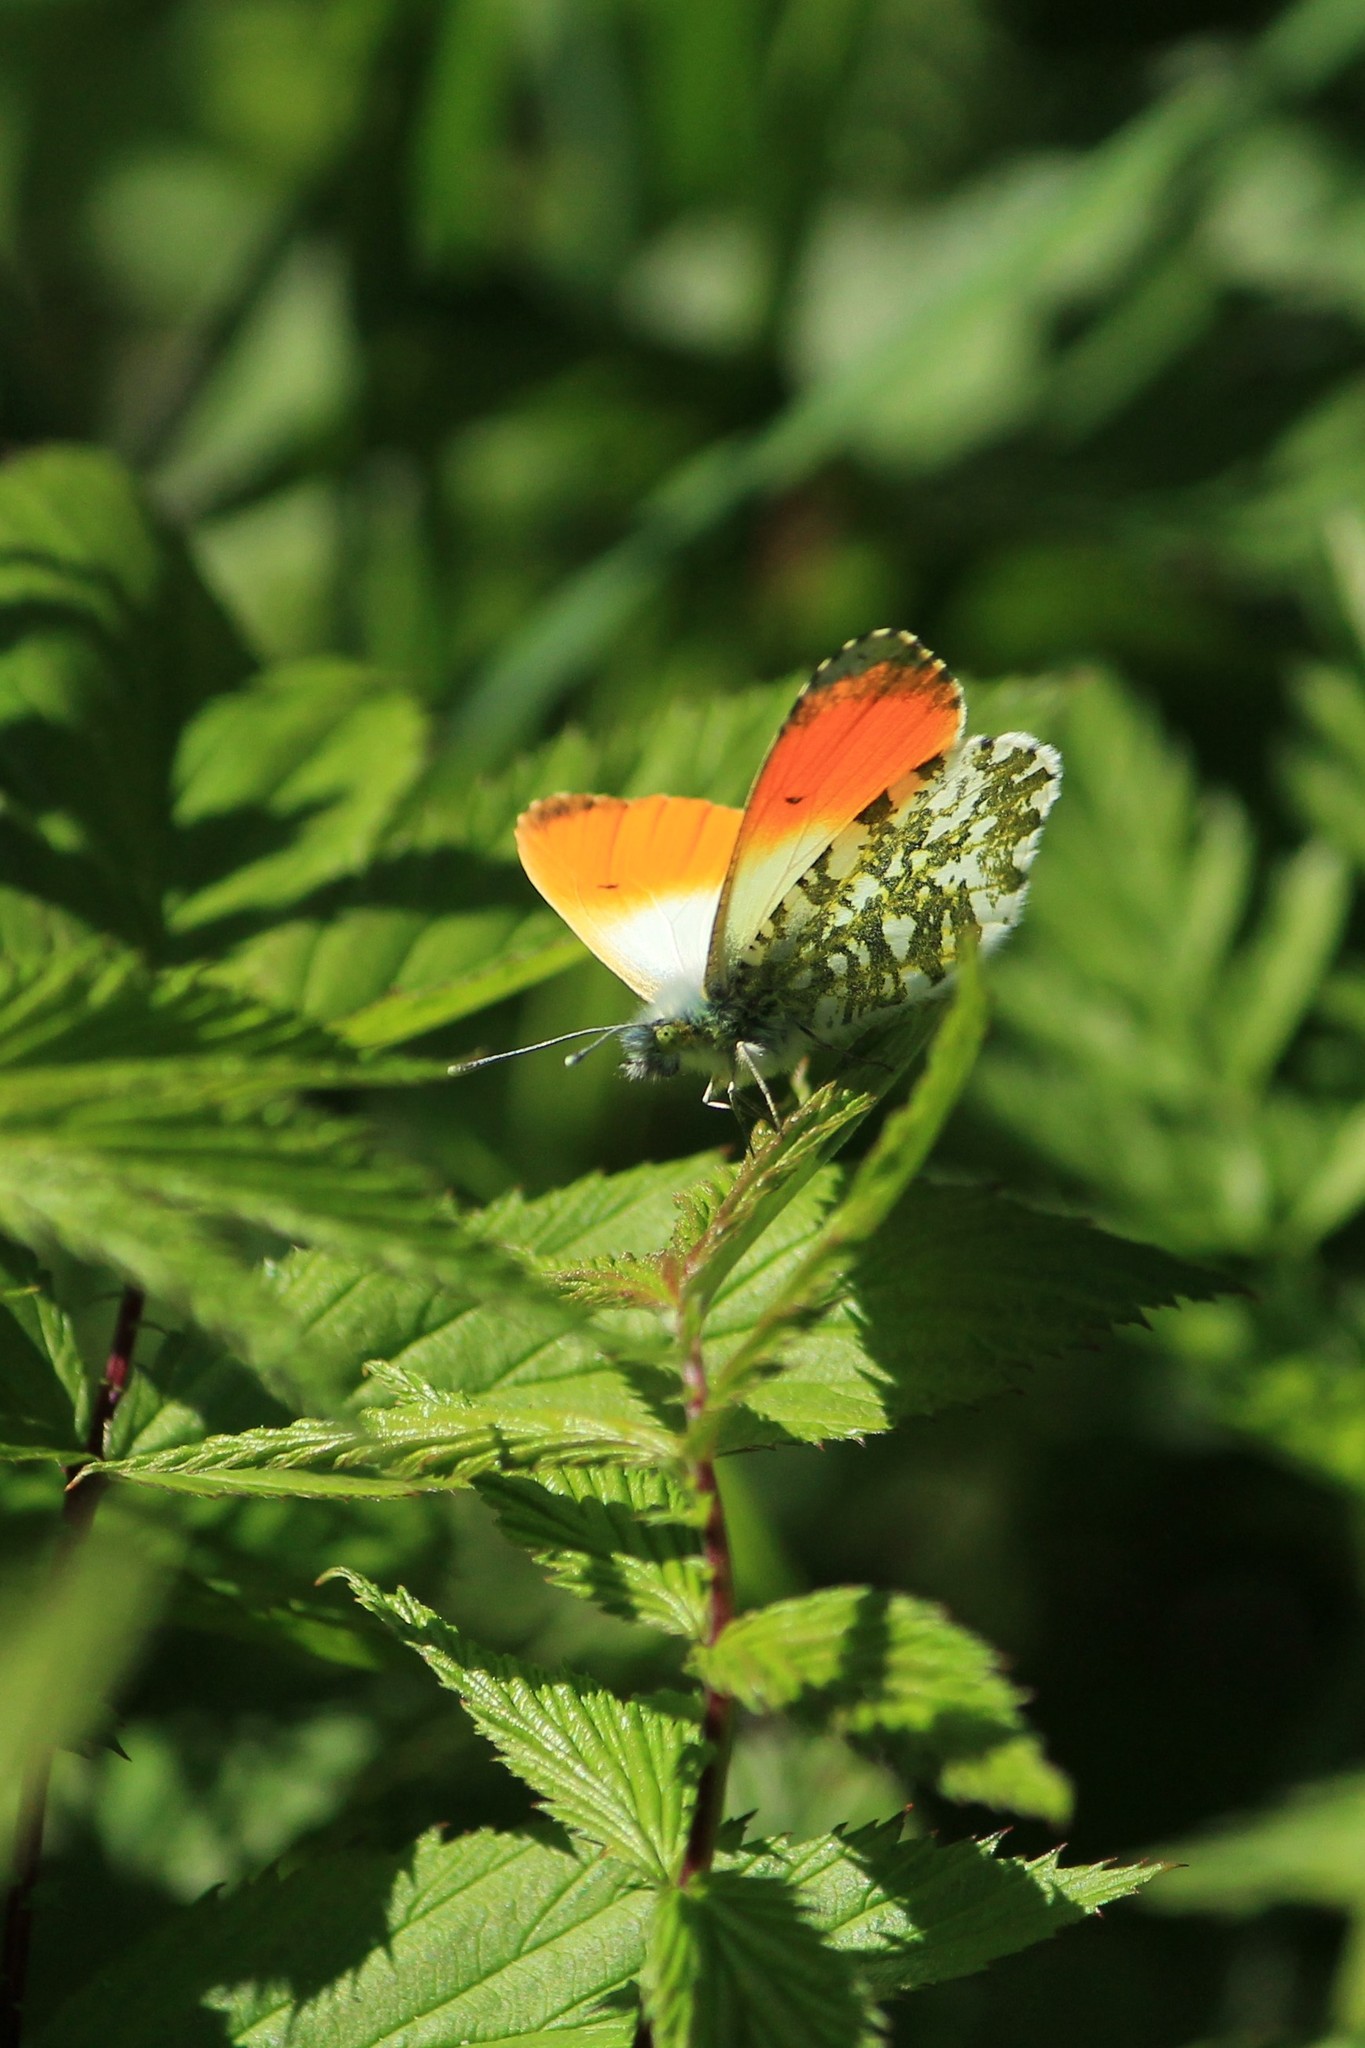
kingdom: Animalia
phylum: Arthropoda
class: Insecta
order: Lepidoptera
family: Pieridae
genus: Anthocharis
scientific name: Anthocharis cardamines
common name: Orange-tip
